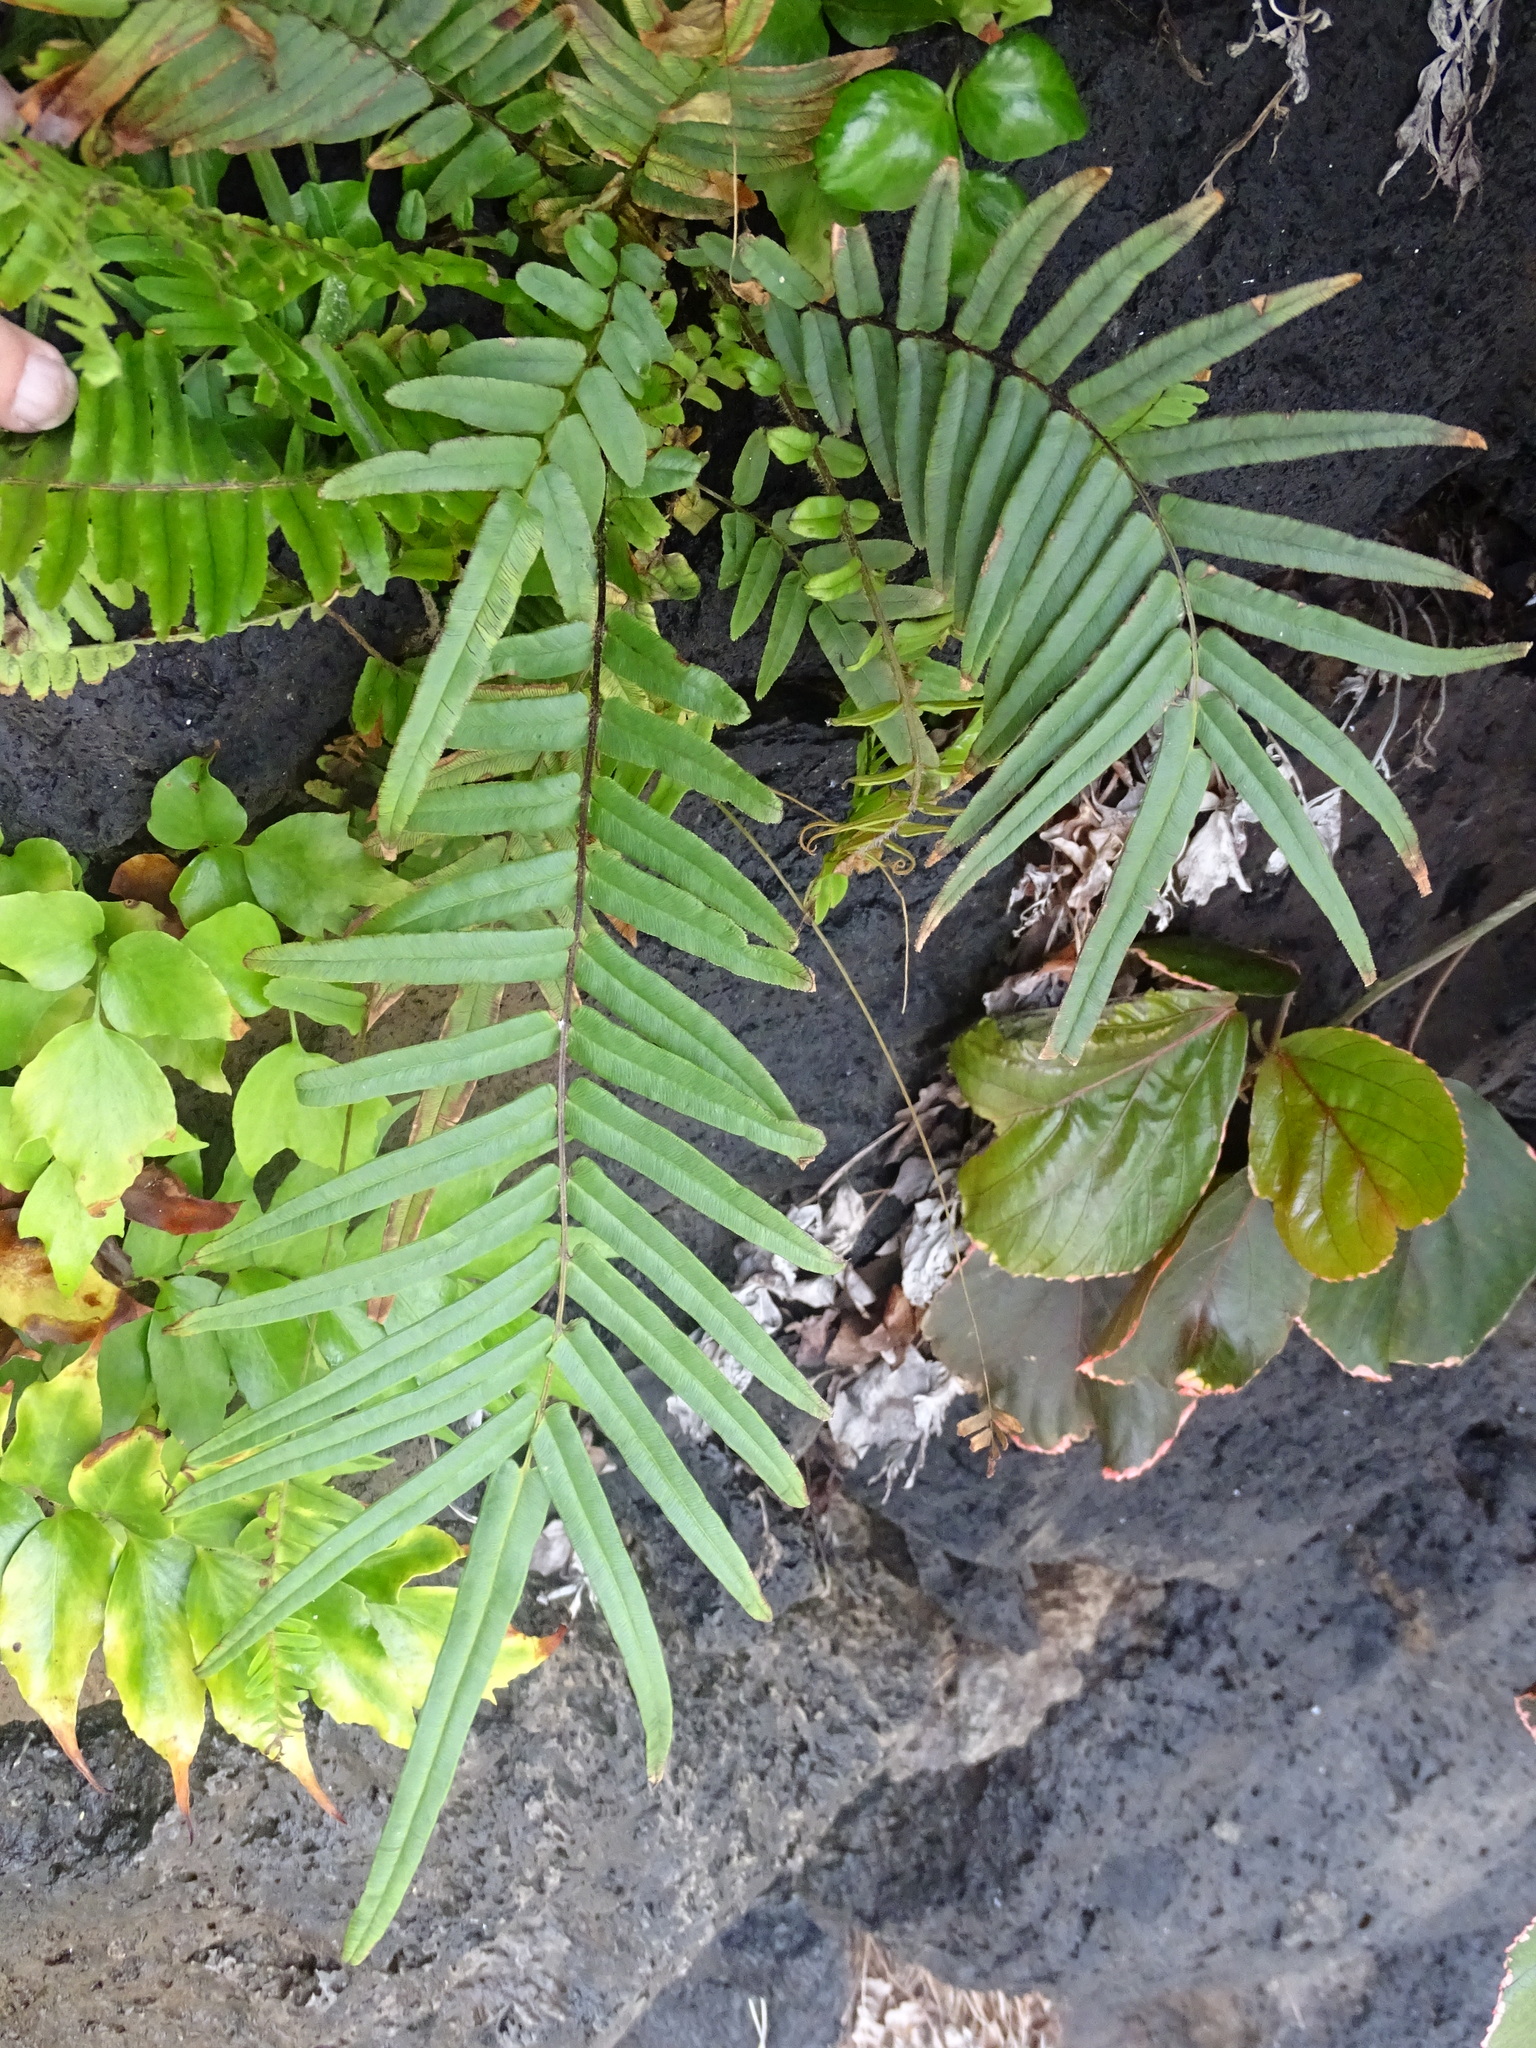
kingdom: Plantae
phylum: Tracheophyta
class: Polypodiopsida
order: Polypodiales
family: Pteridaceae
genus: Pteris
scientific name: Pteris vittata
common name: Ladder brake
